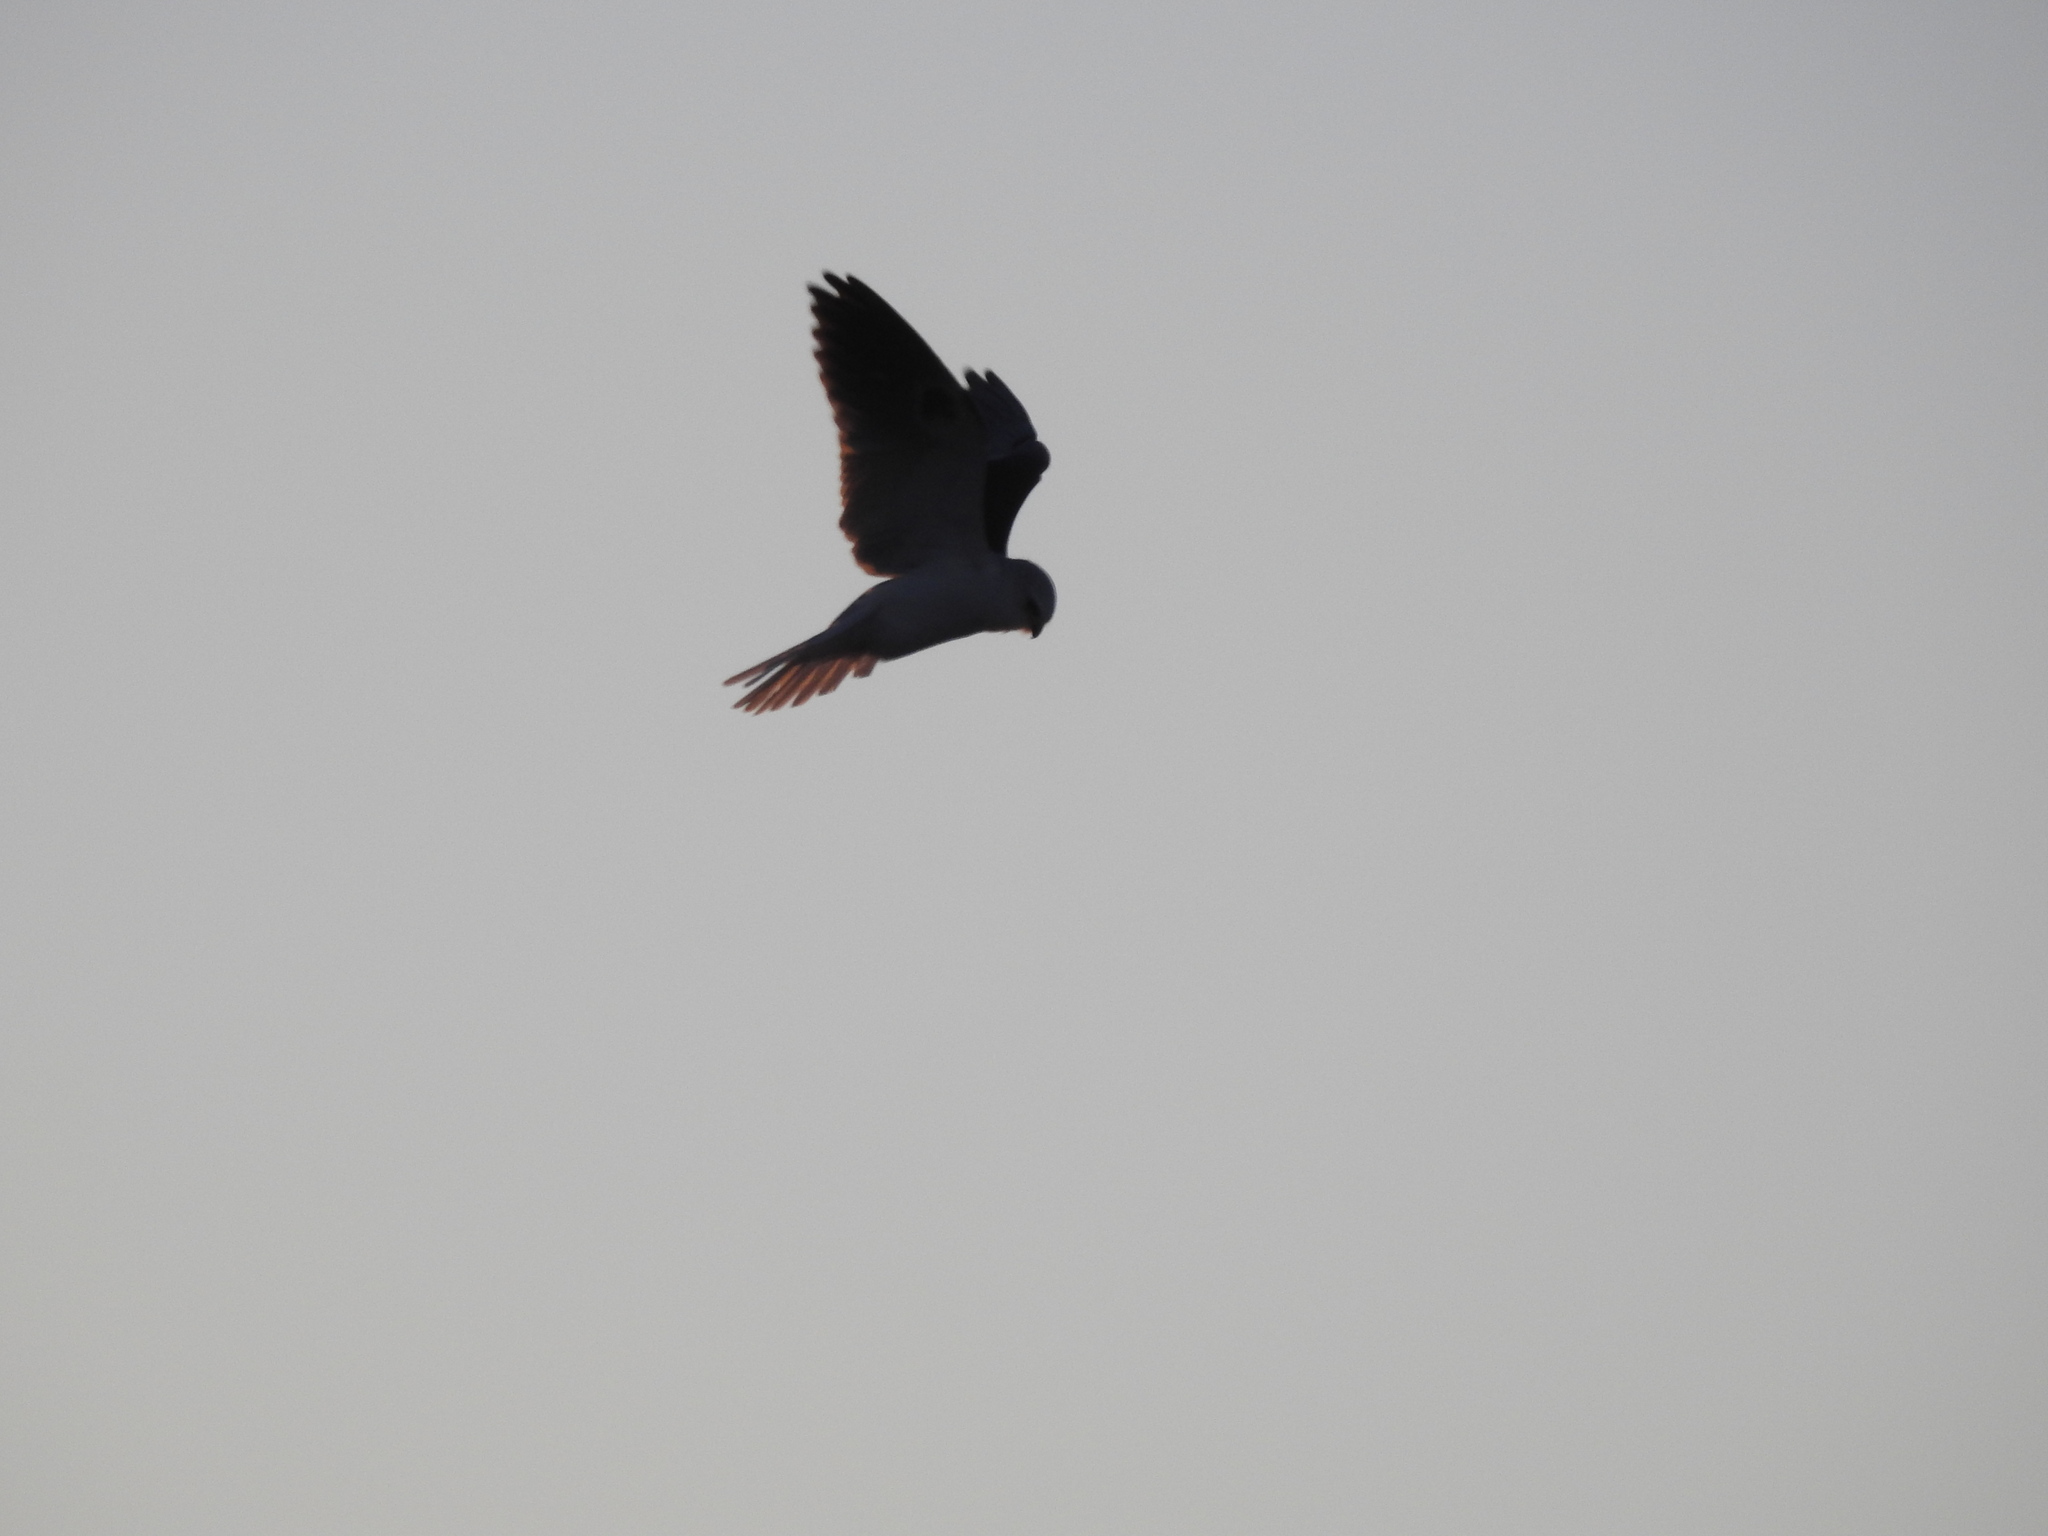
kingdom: Animalia
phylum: Chordata
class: Aves
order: Accipitriformes
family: Accipitridae
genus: Elanus
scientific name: Elanus leucurus
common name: White-tailed kite
